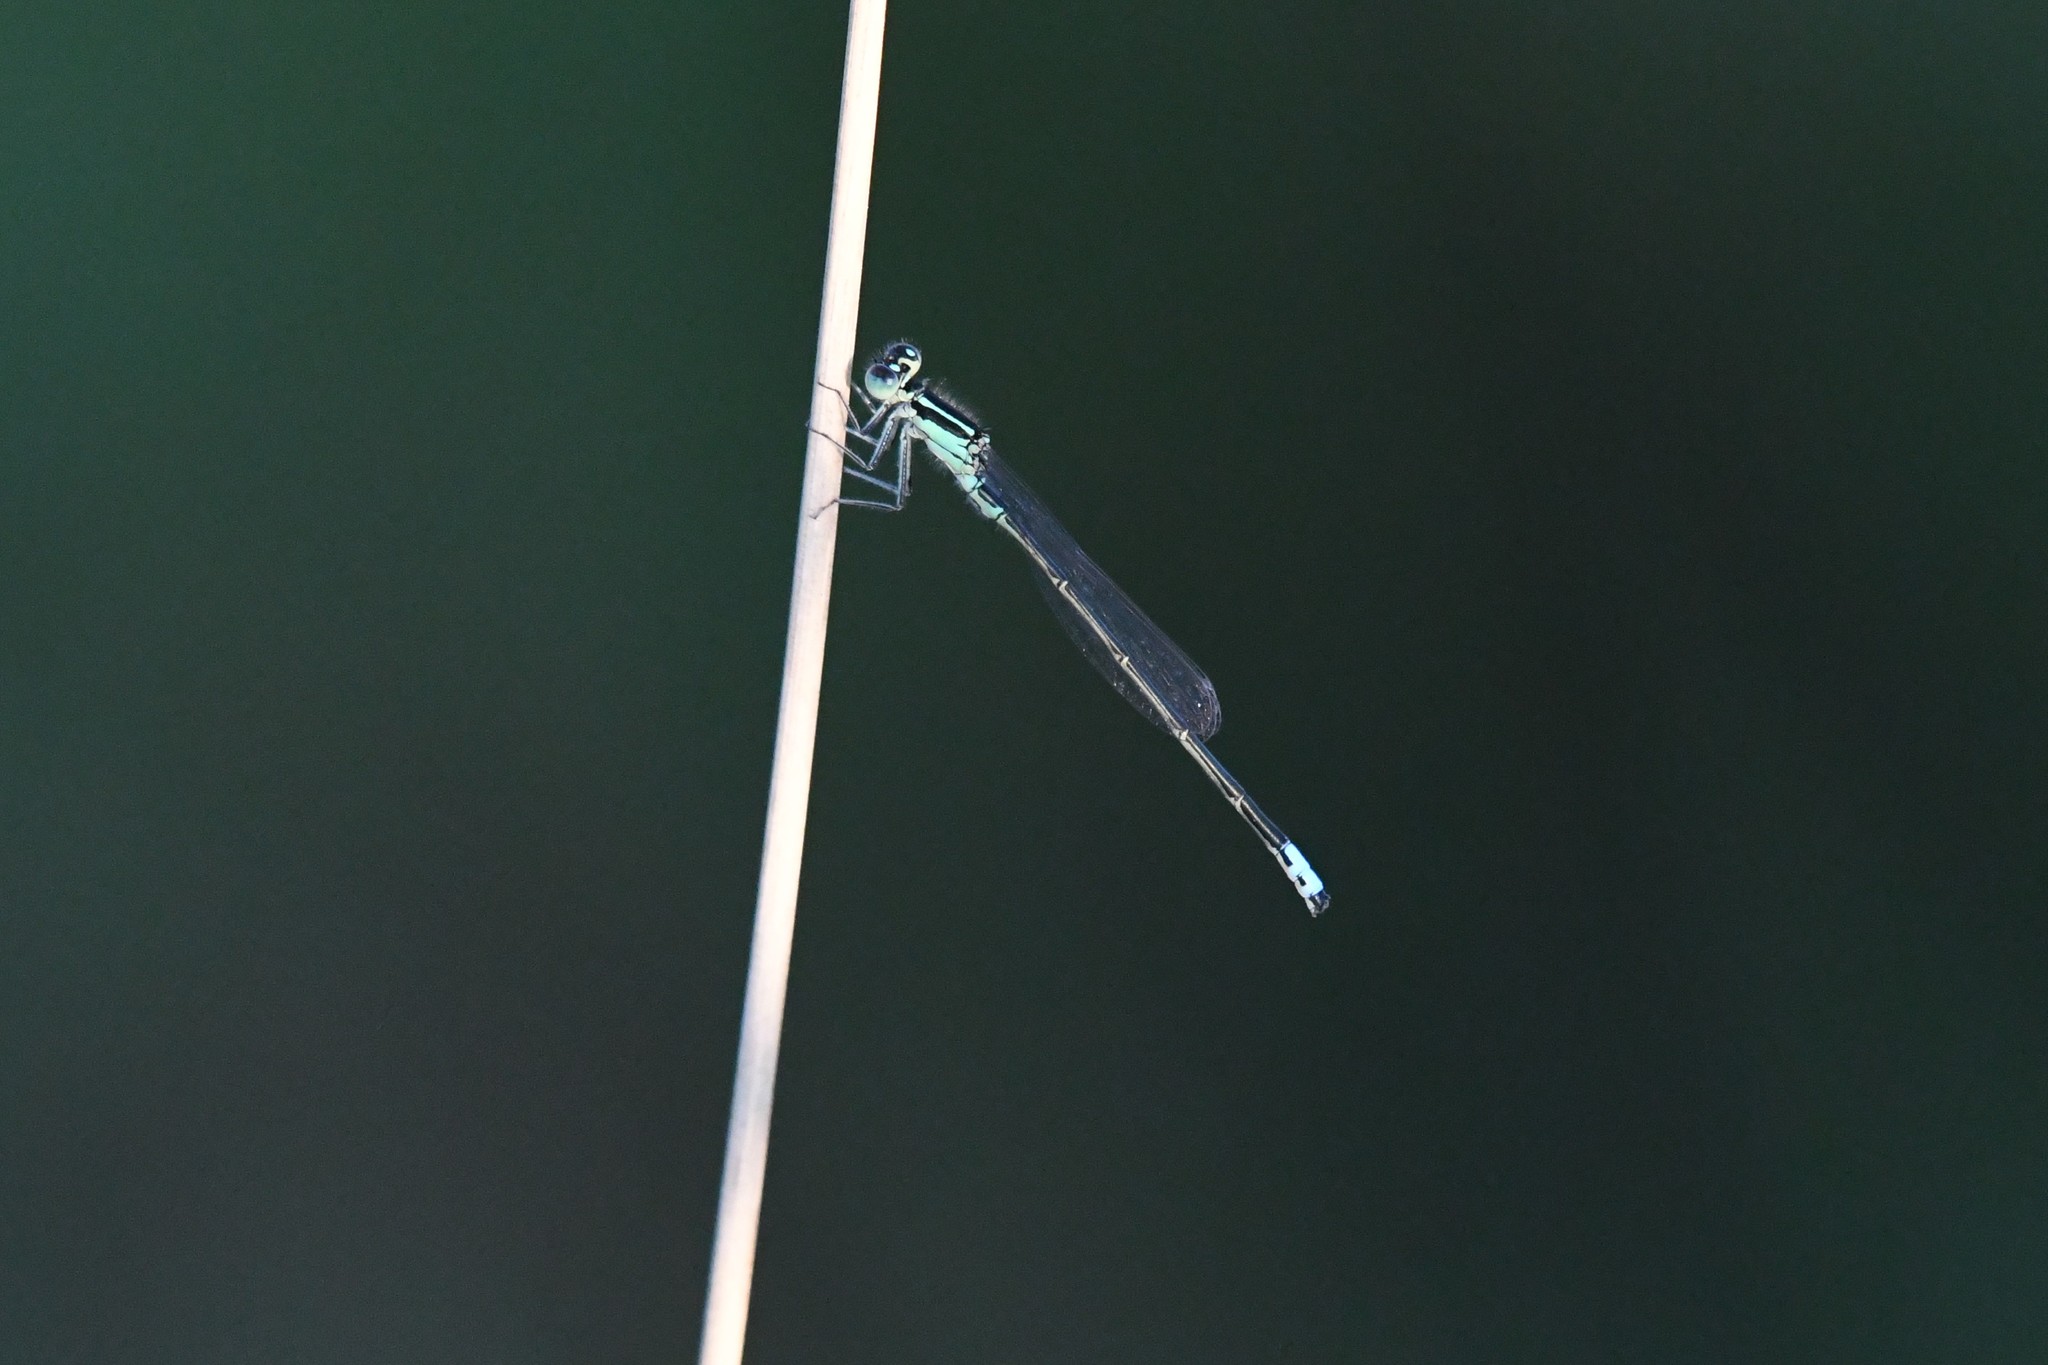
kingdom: Animalia
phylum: Arthropoda
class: Insecta
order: Odonata
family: Coenagrionidae
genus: Ischnura
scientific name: Ischnura verticalis
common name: Eastern forktail
